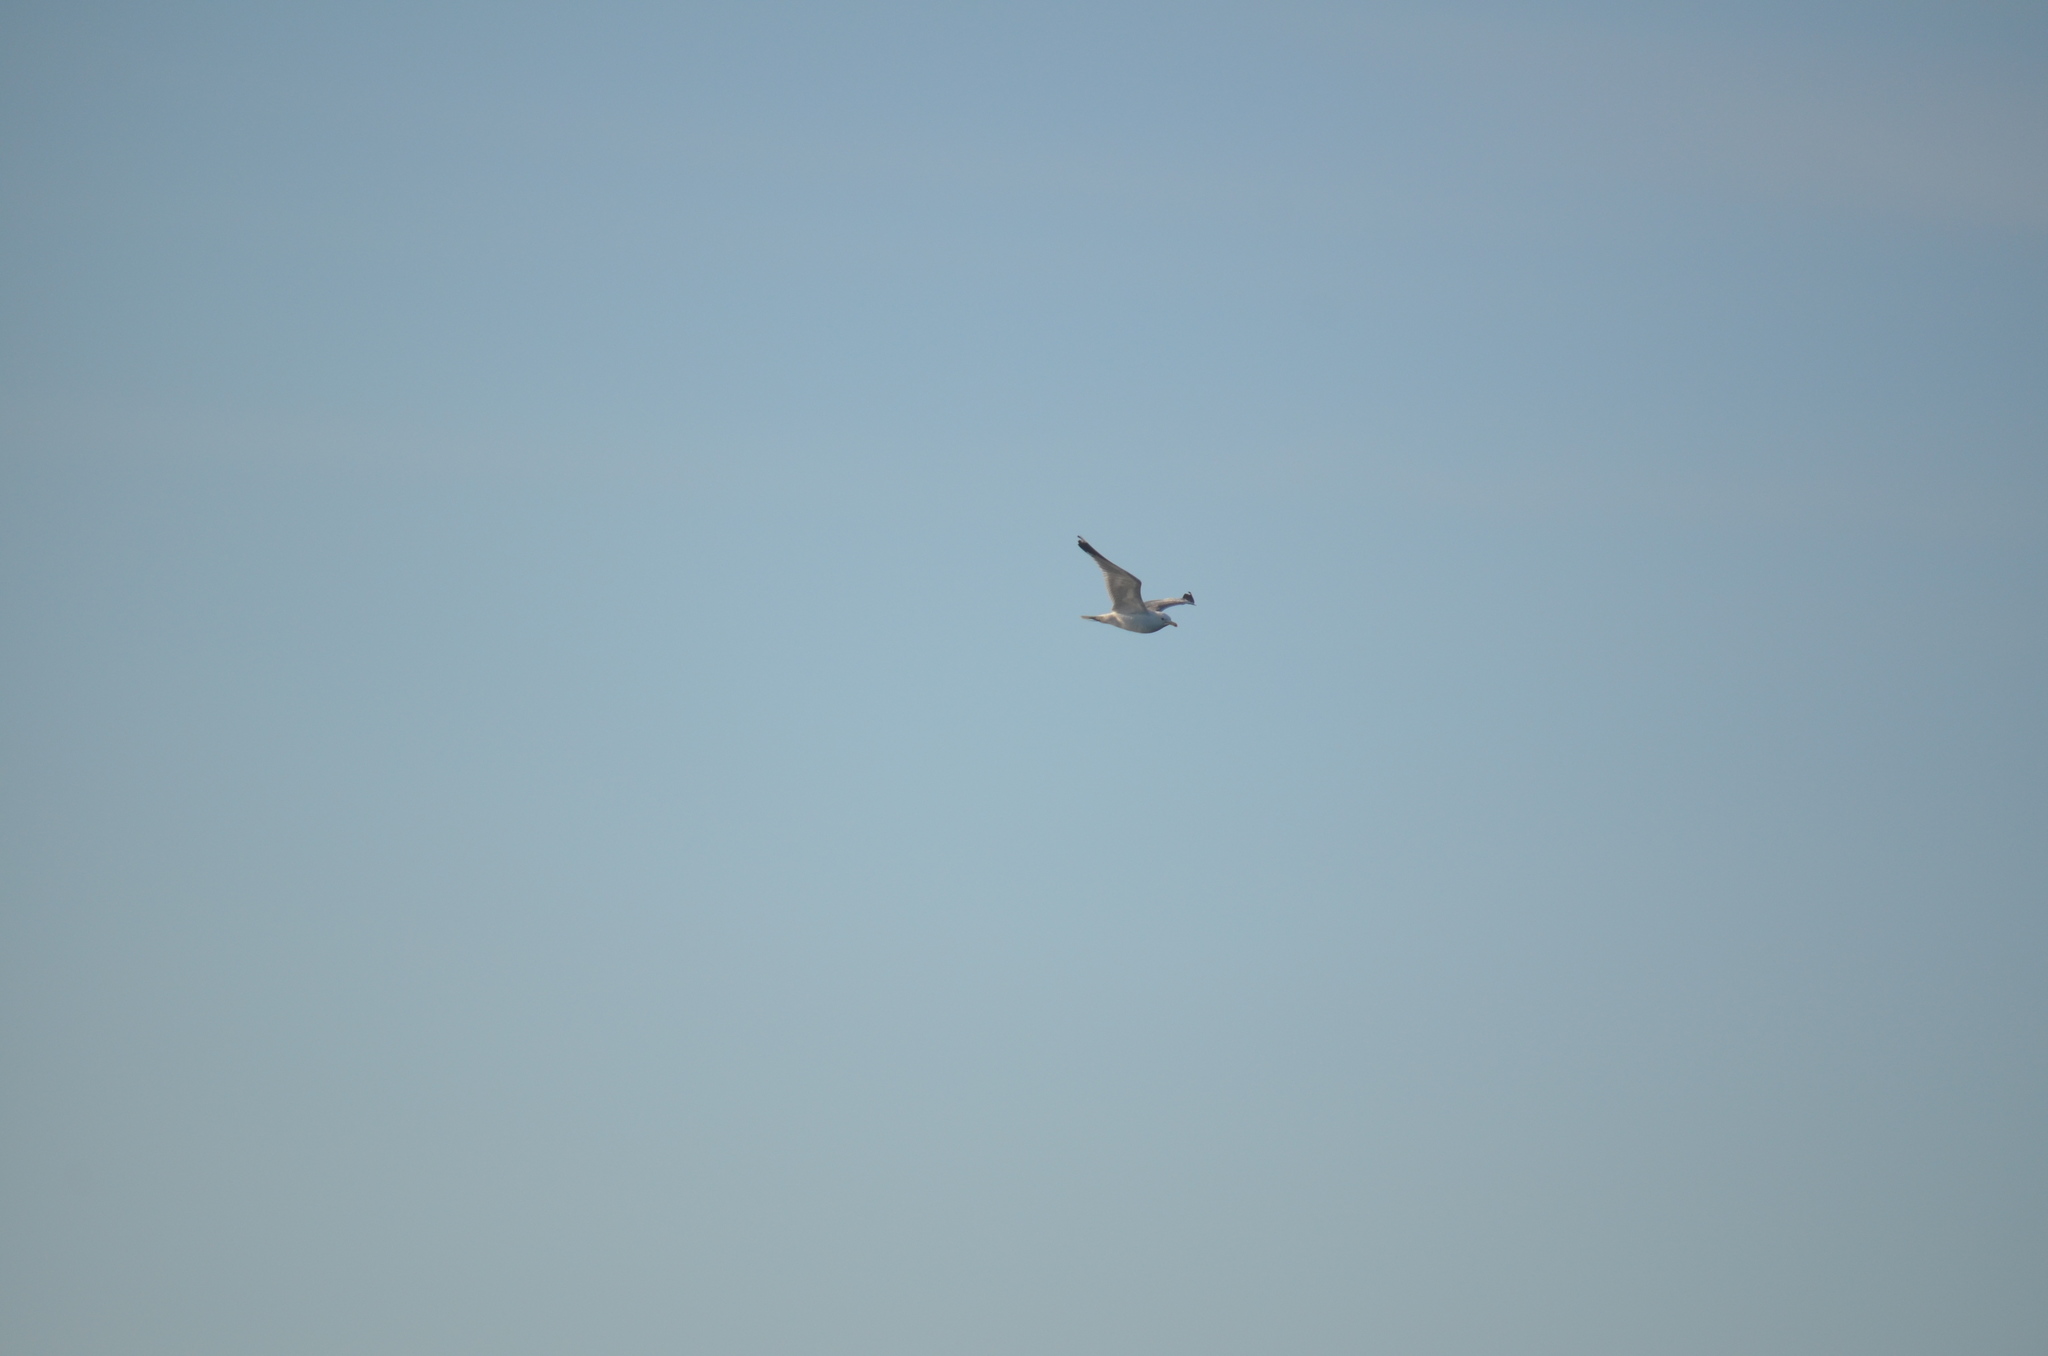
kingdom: Animalia
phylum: Chordata
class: Aves
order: Charadriiformes
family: Laridae
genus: Larus
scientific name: Larus californicus
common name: California gull
